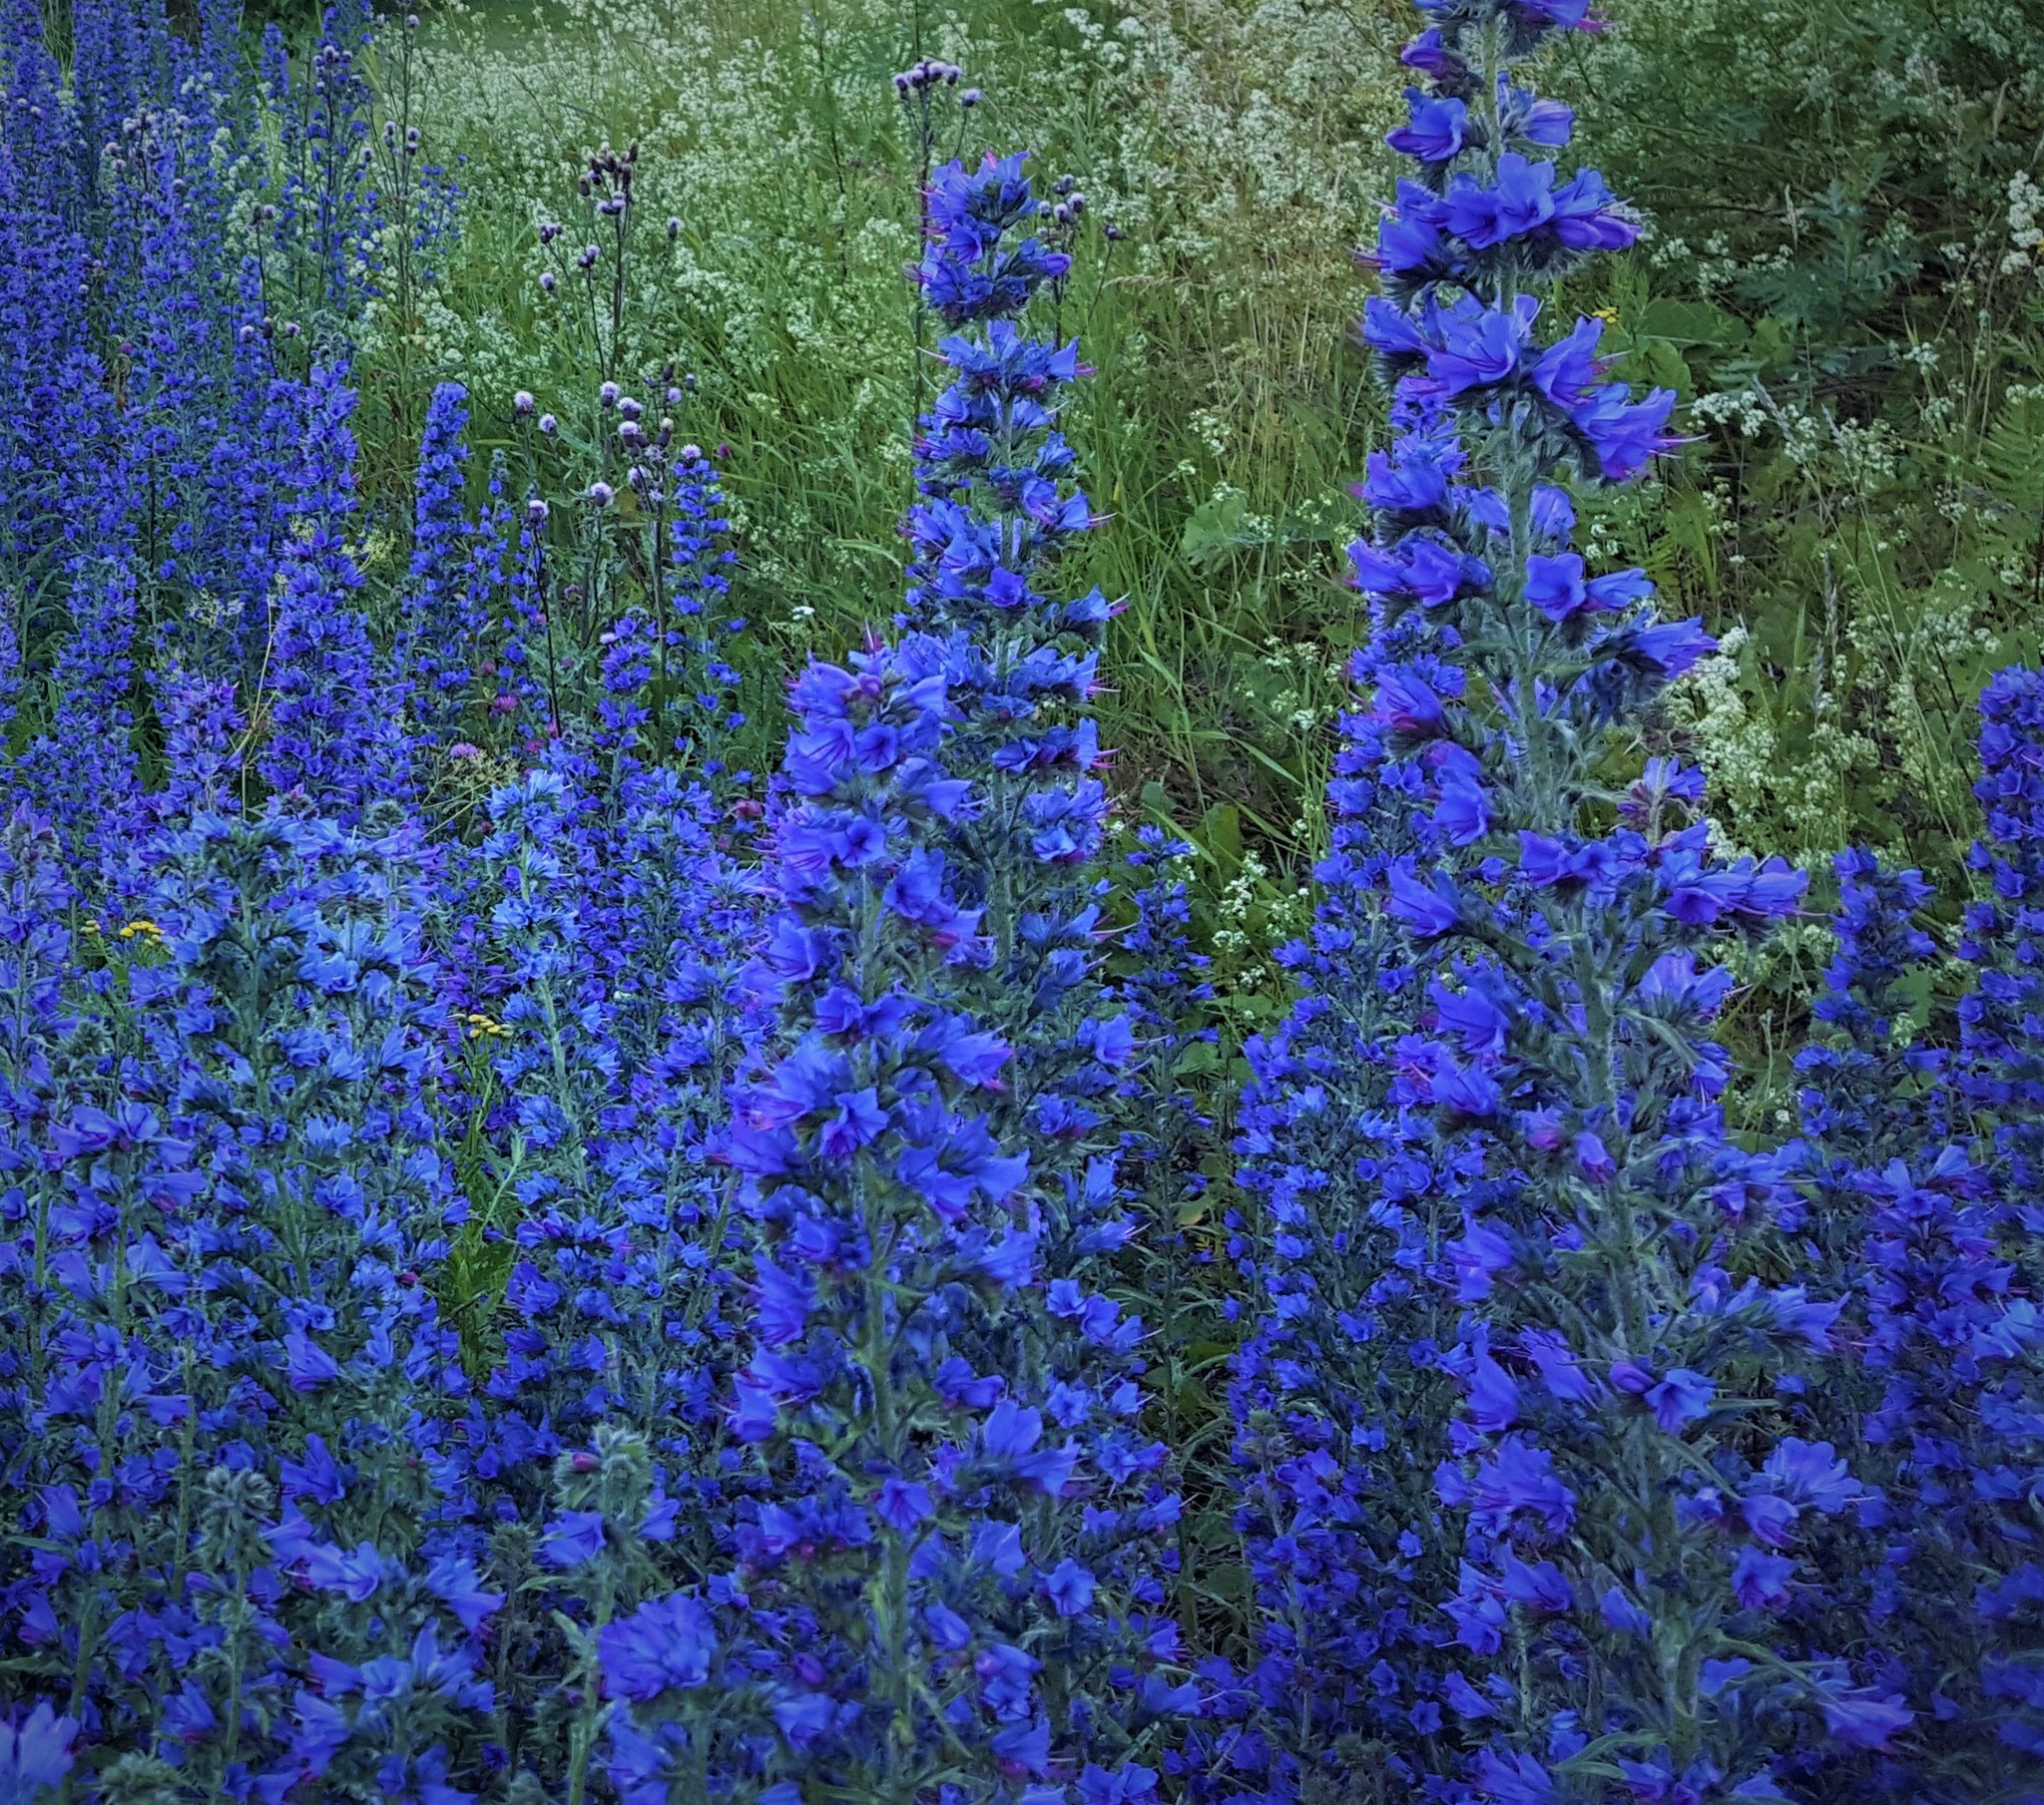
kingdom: Plantae
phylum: Tracheophyta
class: Magnoliopsida
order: Boraginales
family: Boraginaceae
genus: Echium
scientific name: Echium vulgare
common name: Common viper's bugloss
